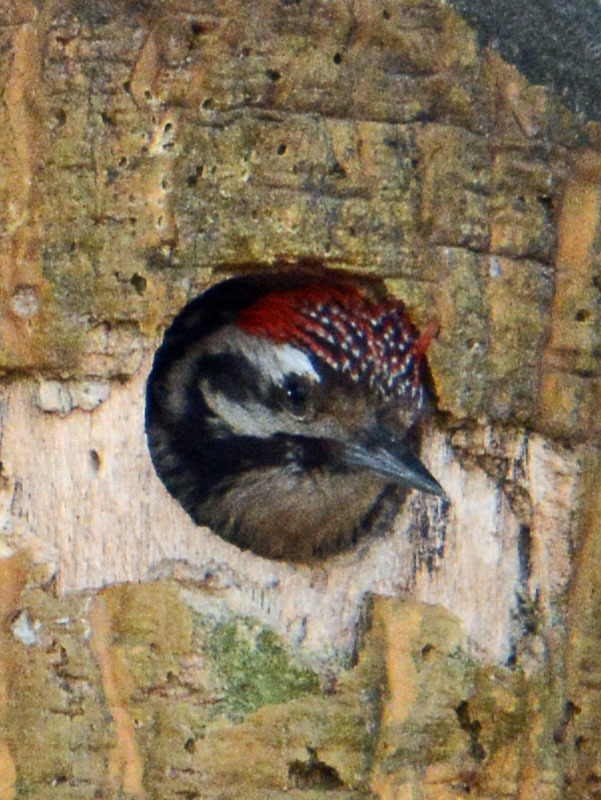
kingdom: Animalia
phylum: Chordata
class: Aves
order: Piciformes
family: Picidae
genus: Dryobates
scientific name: Dryobates scalaris
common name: Ladder-backed woodpecker
